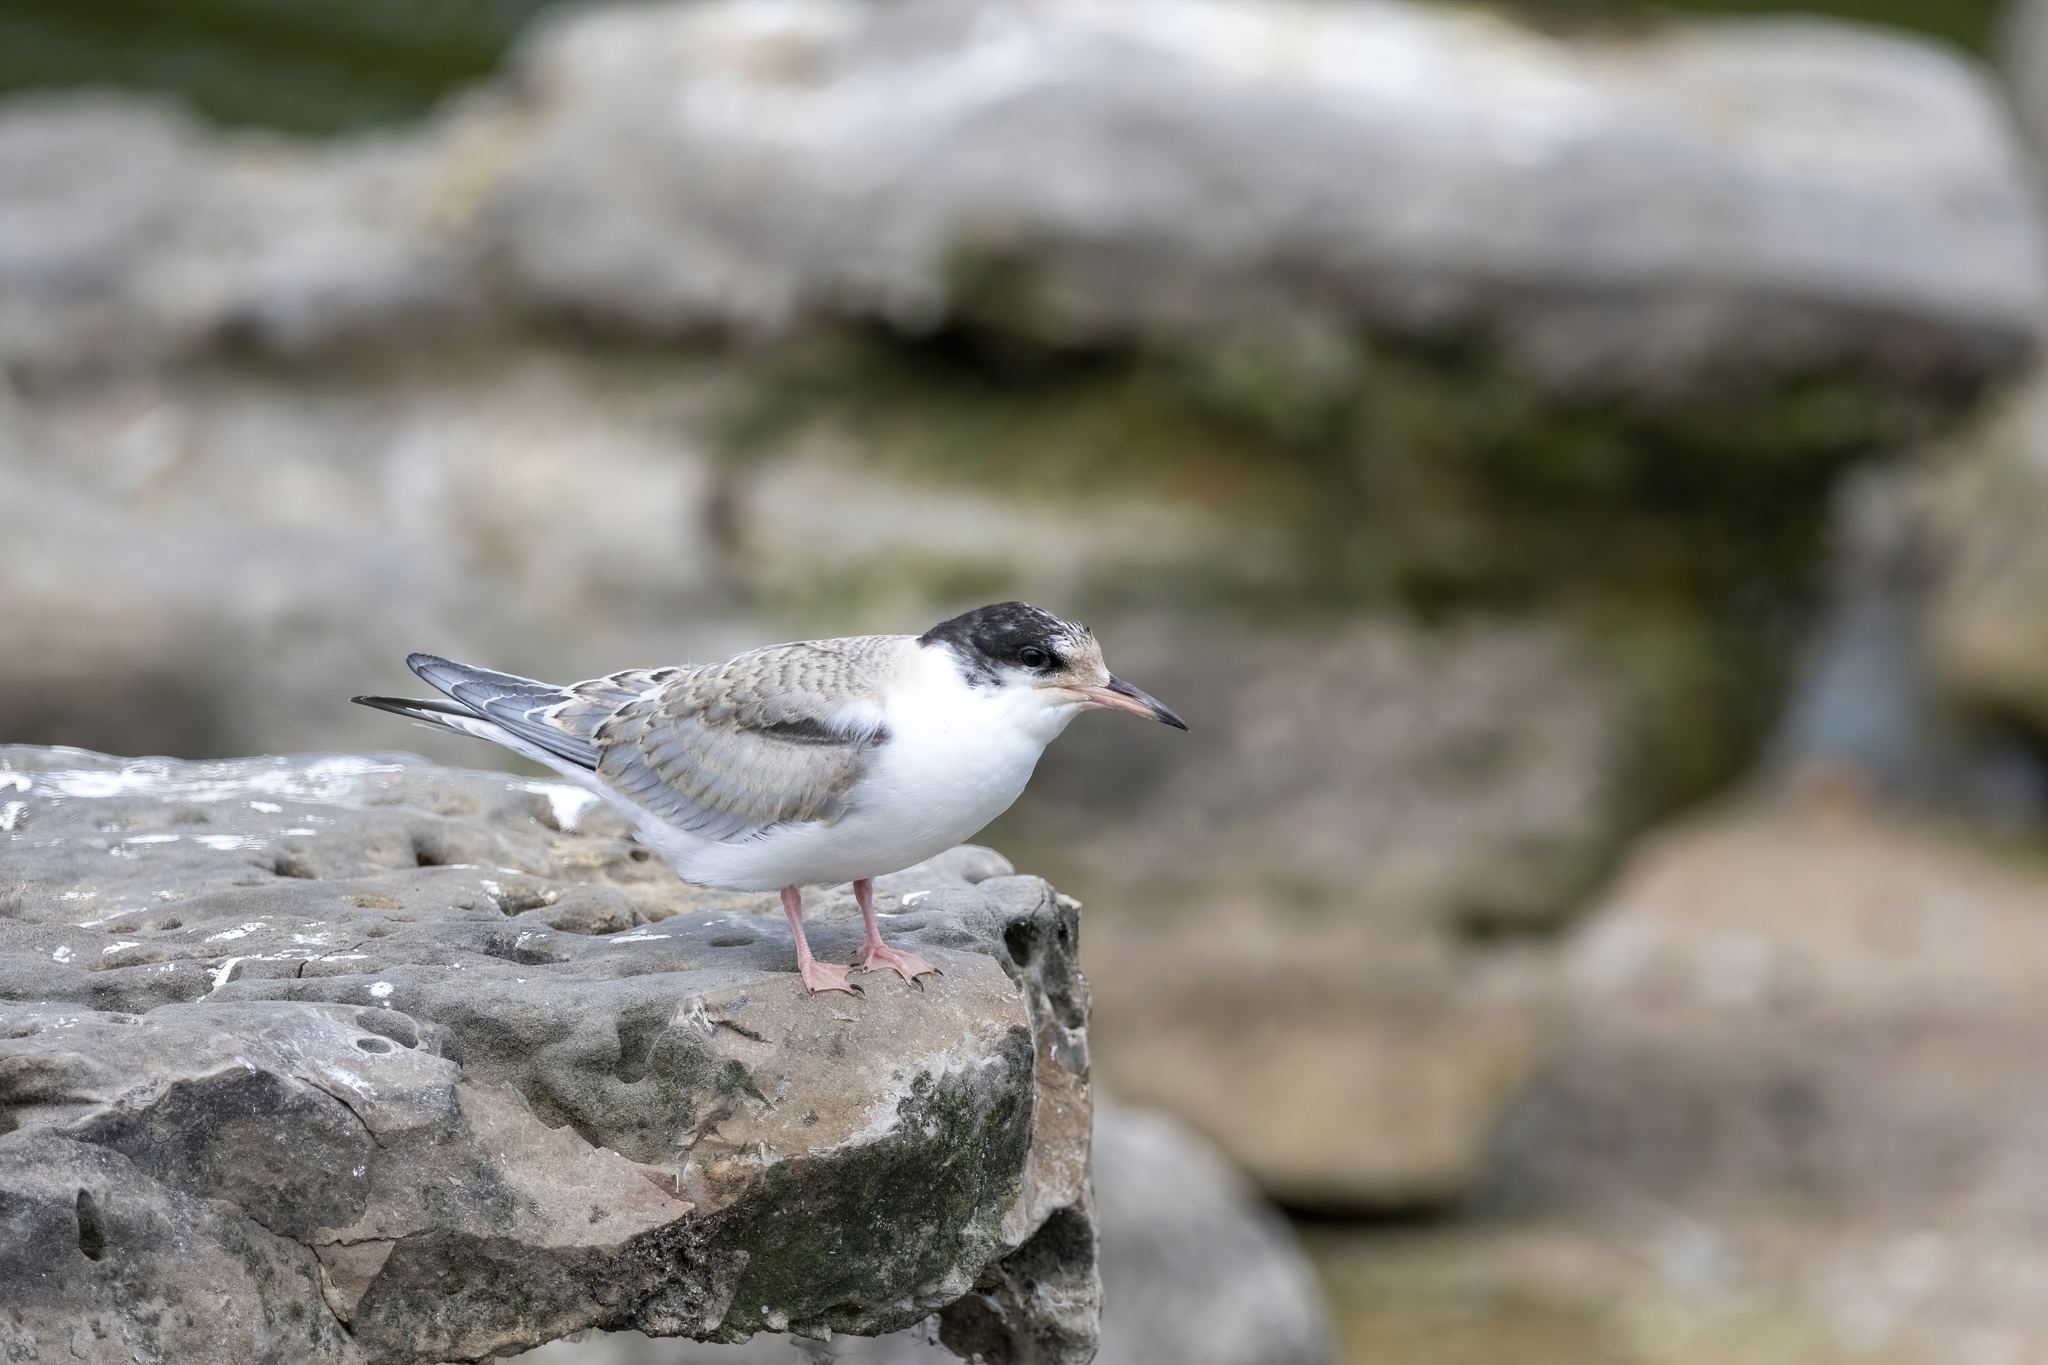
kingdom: Animalia
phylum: Chordata
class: Aves
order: Charadriiformes
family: Laridae
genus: Sterna
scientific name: Sterna hirundo
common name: Common tern
